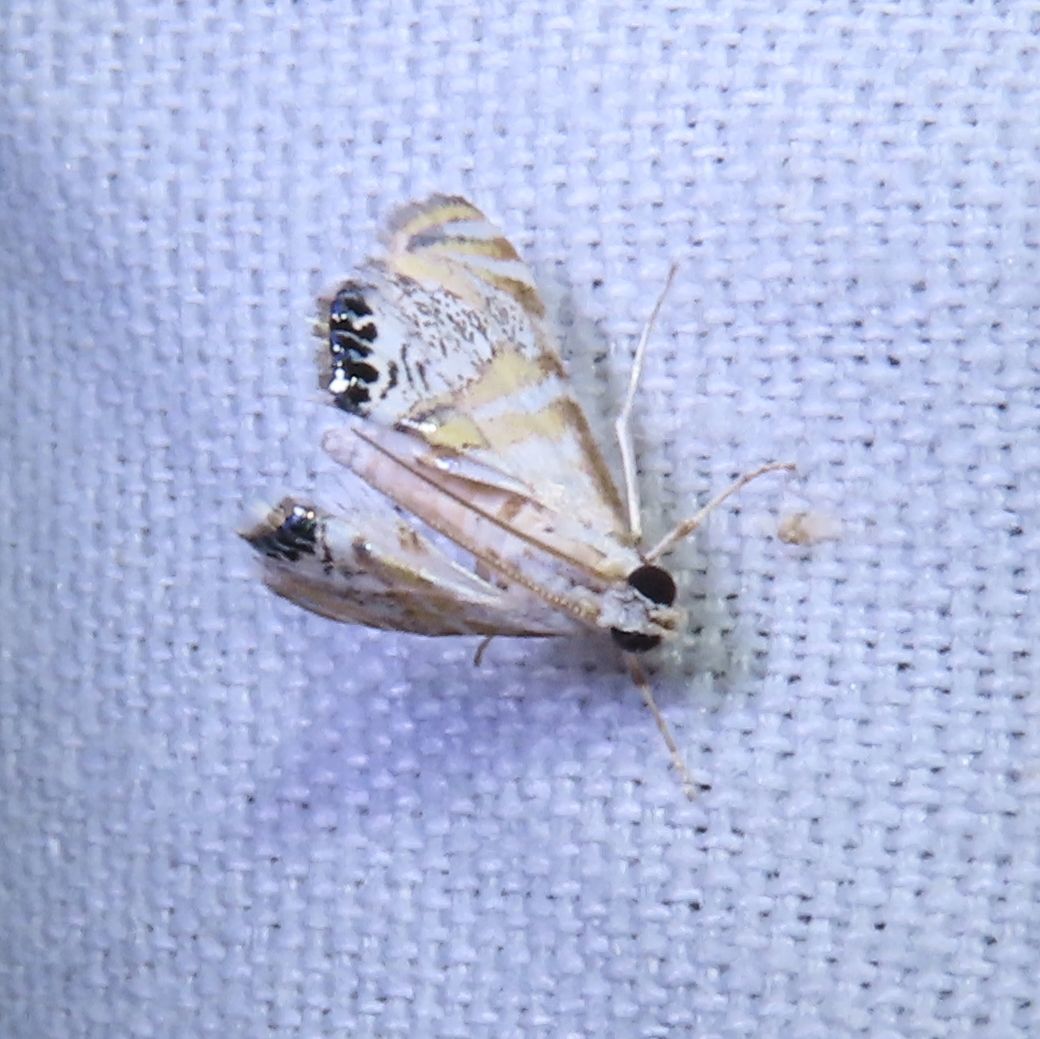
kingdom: Animalia
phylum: Arthropoda
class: Insecta
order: Lepidoptera
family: Crambidae
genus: Petrophila
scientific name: Petrophila kearfottalis
